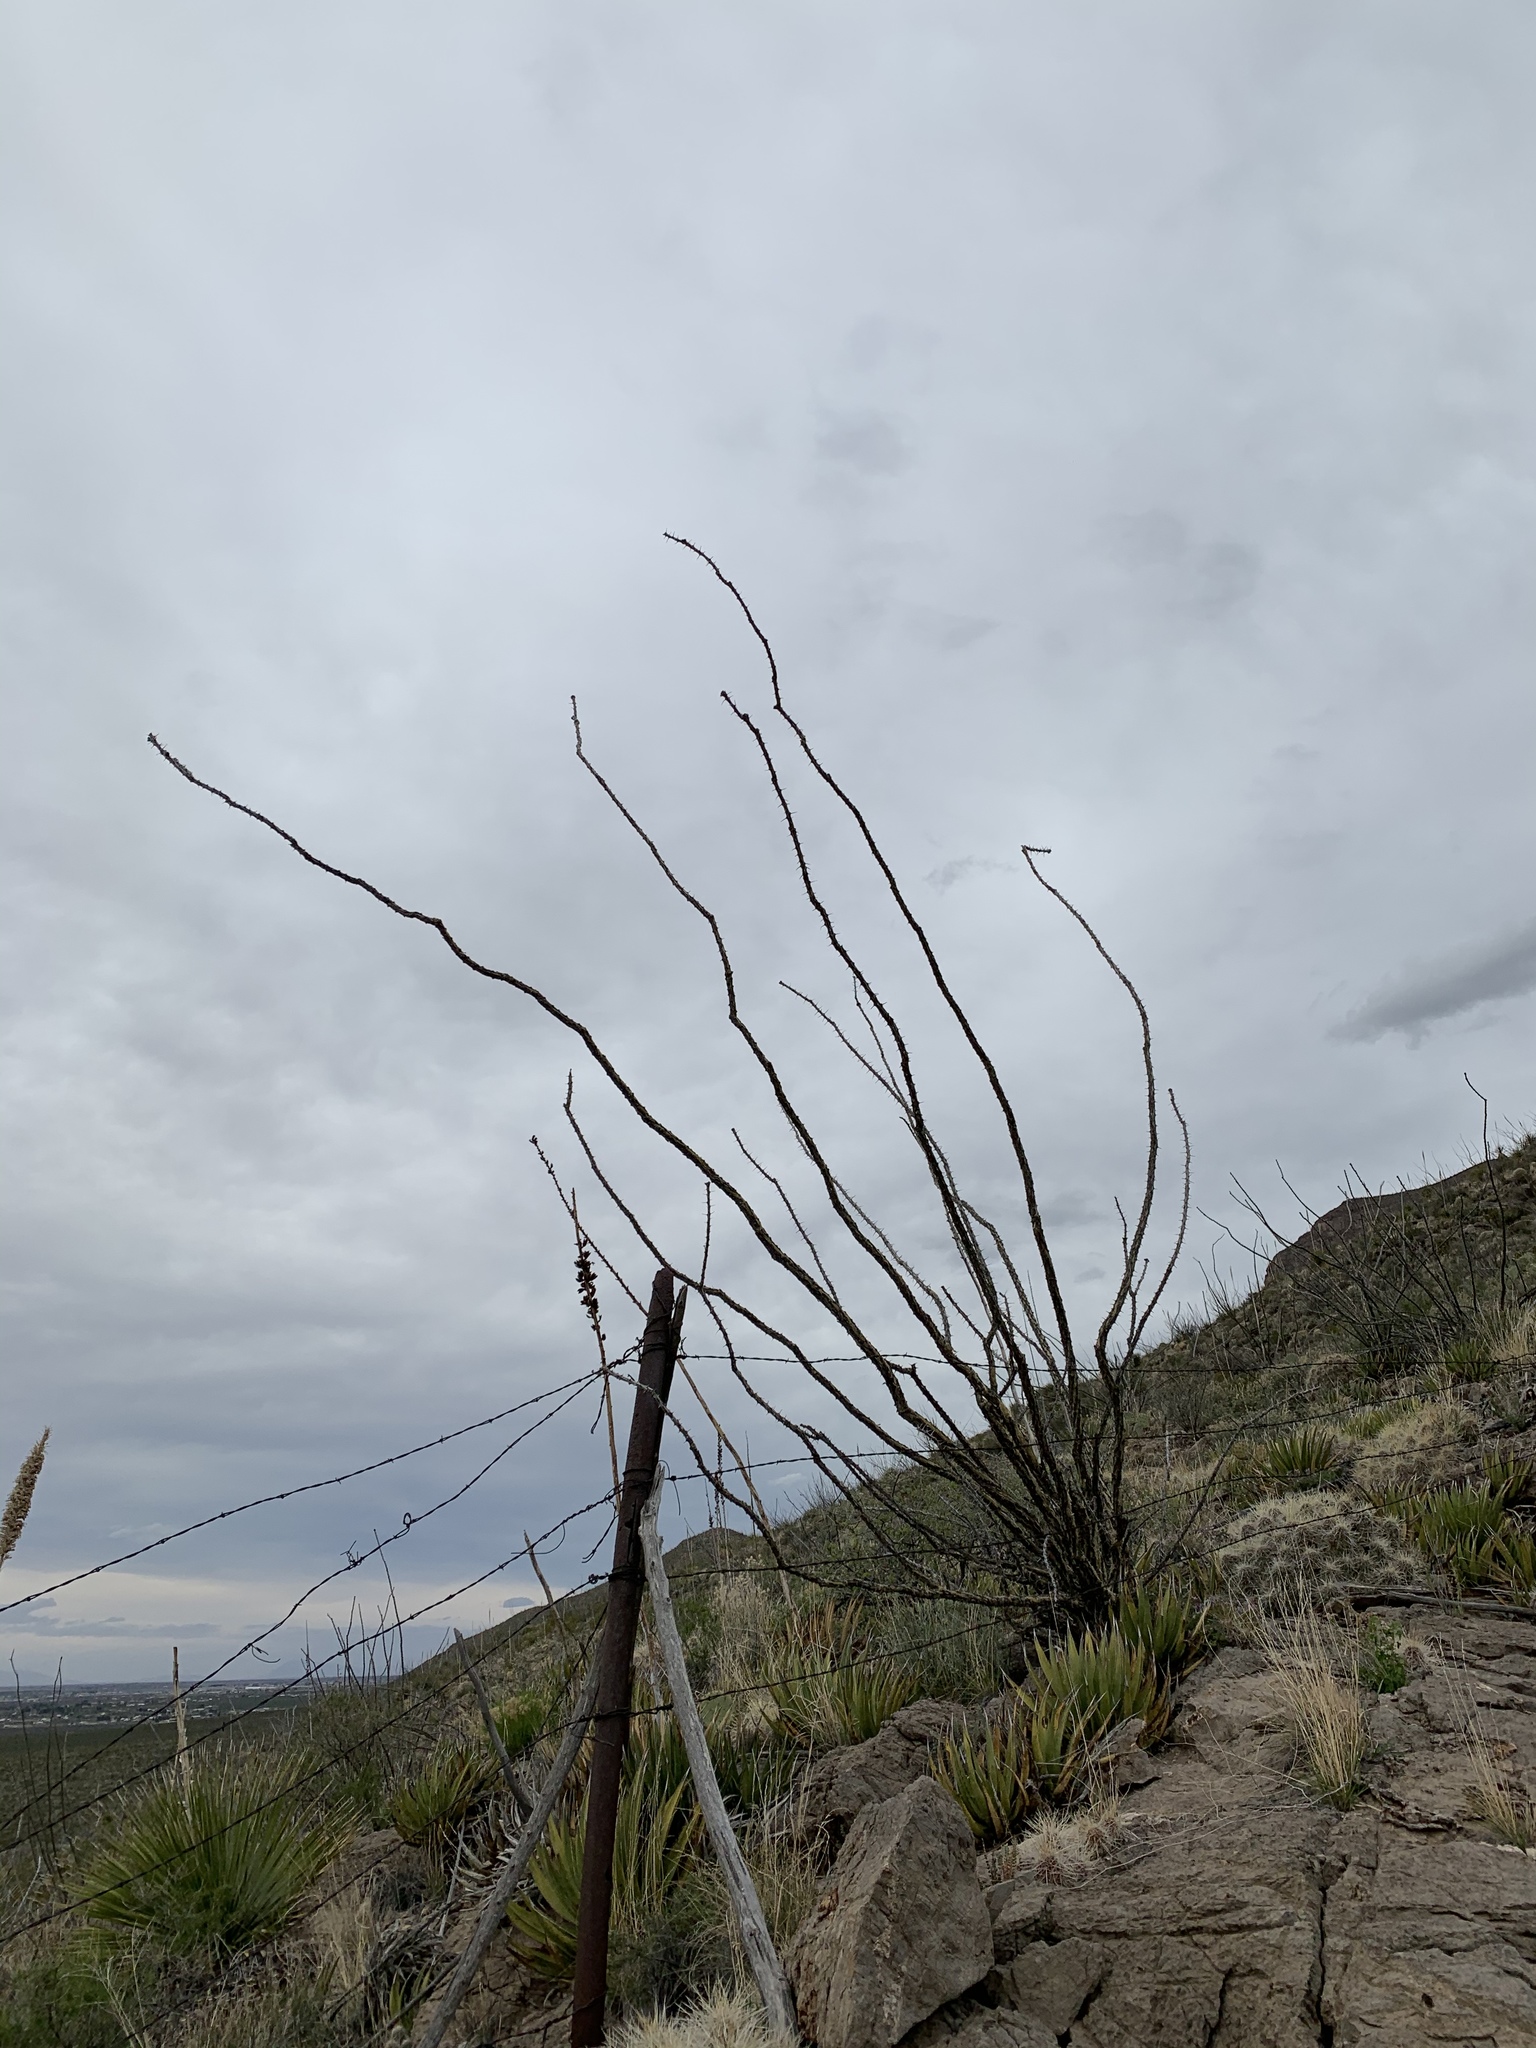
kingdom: Plantae
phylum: Tracheophyta
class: Magnoliopsida
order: Ericales
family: Fouquieriaceae
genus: Fouquieria
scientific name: Fouquieria splendens
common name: Vine-cactus
